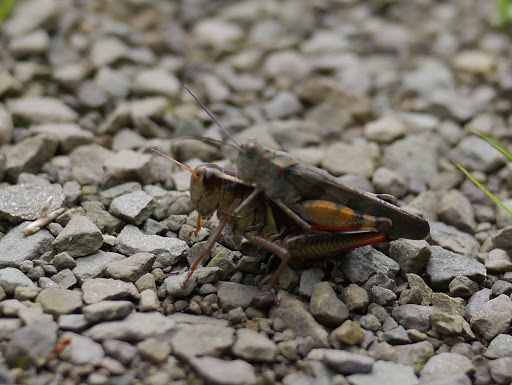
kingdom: Animalia
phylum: Arthropoda
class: Insecta
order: Orthoptera
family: Acrididae
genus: Melanoplus
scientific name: Melanoplus bivittatus
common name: Two-striped grasshopper
